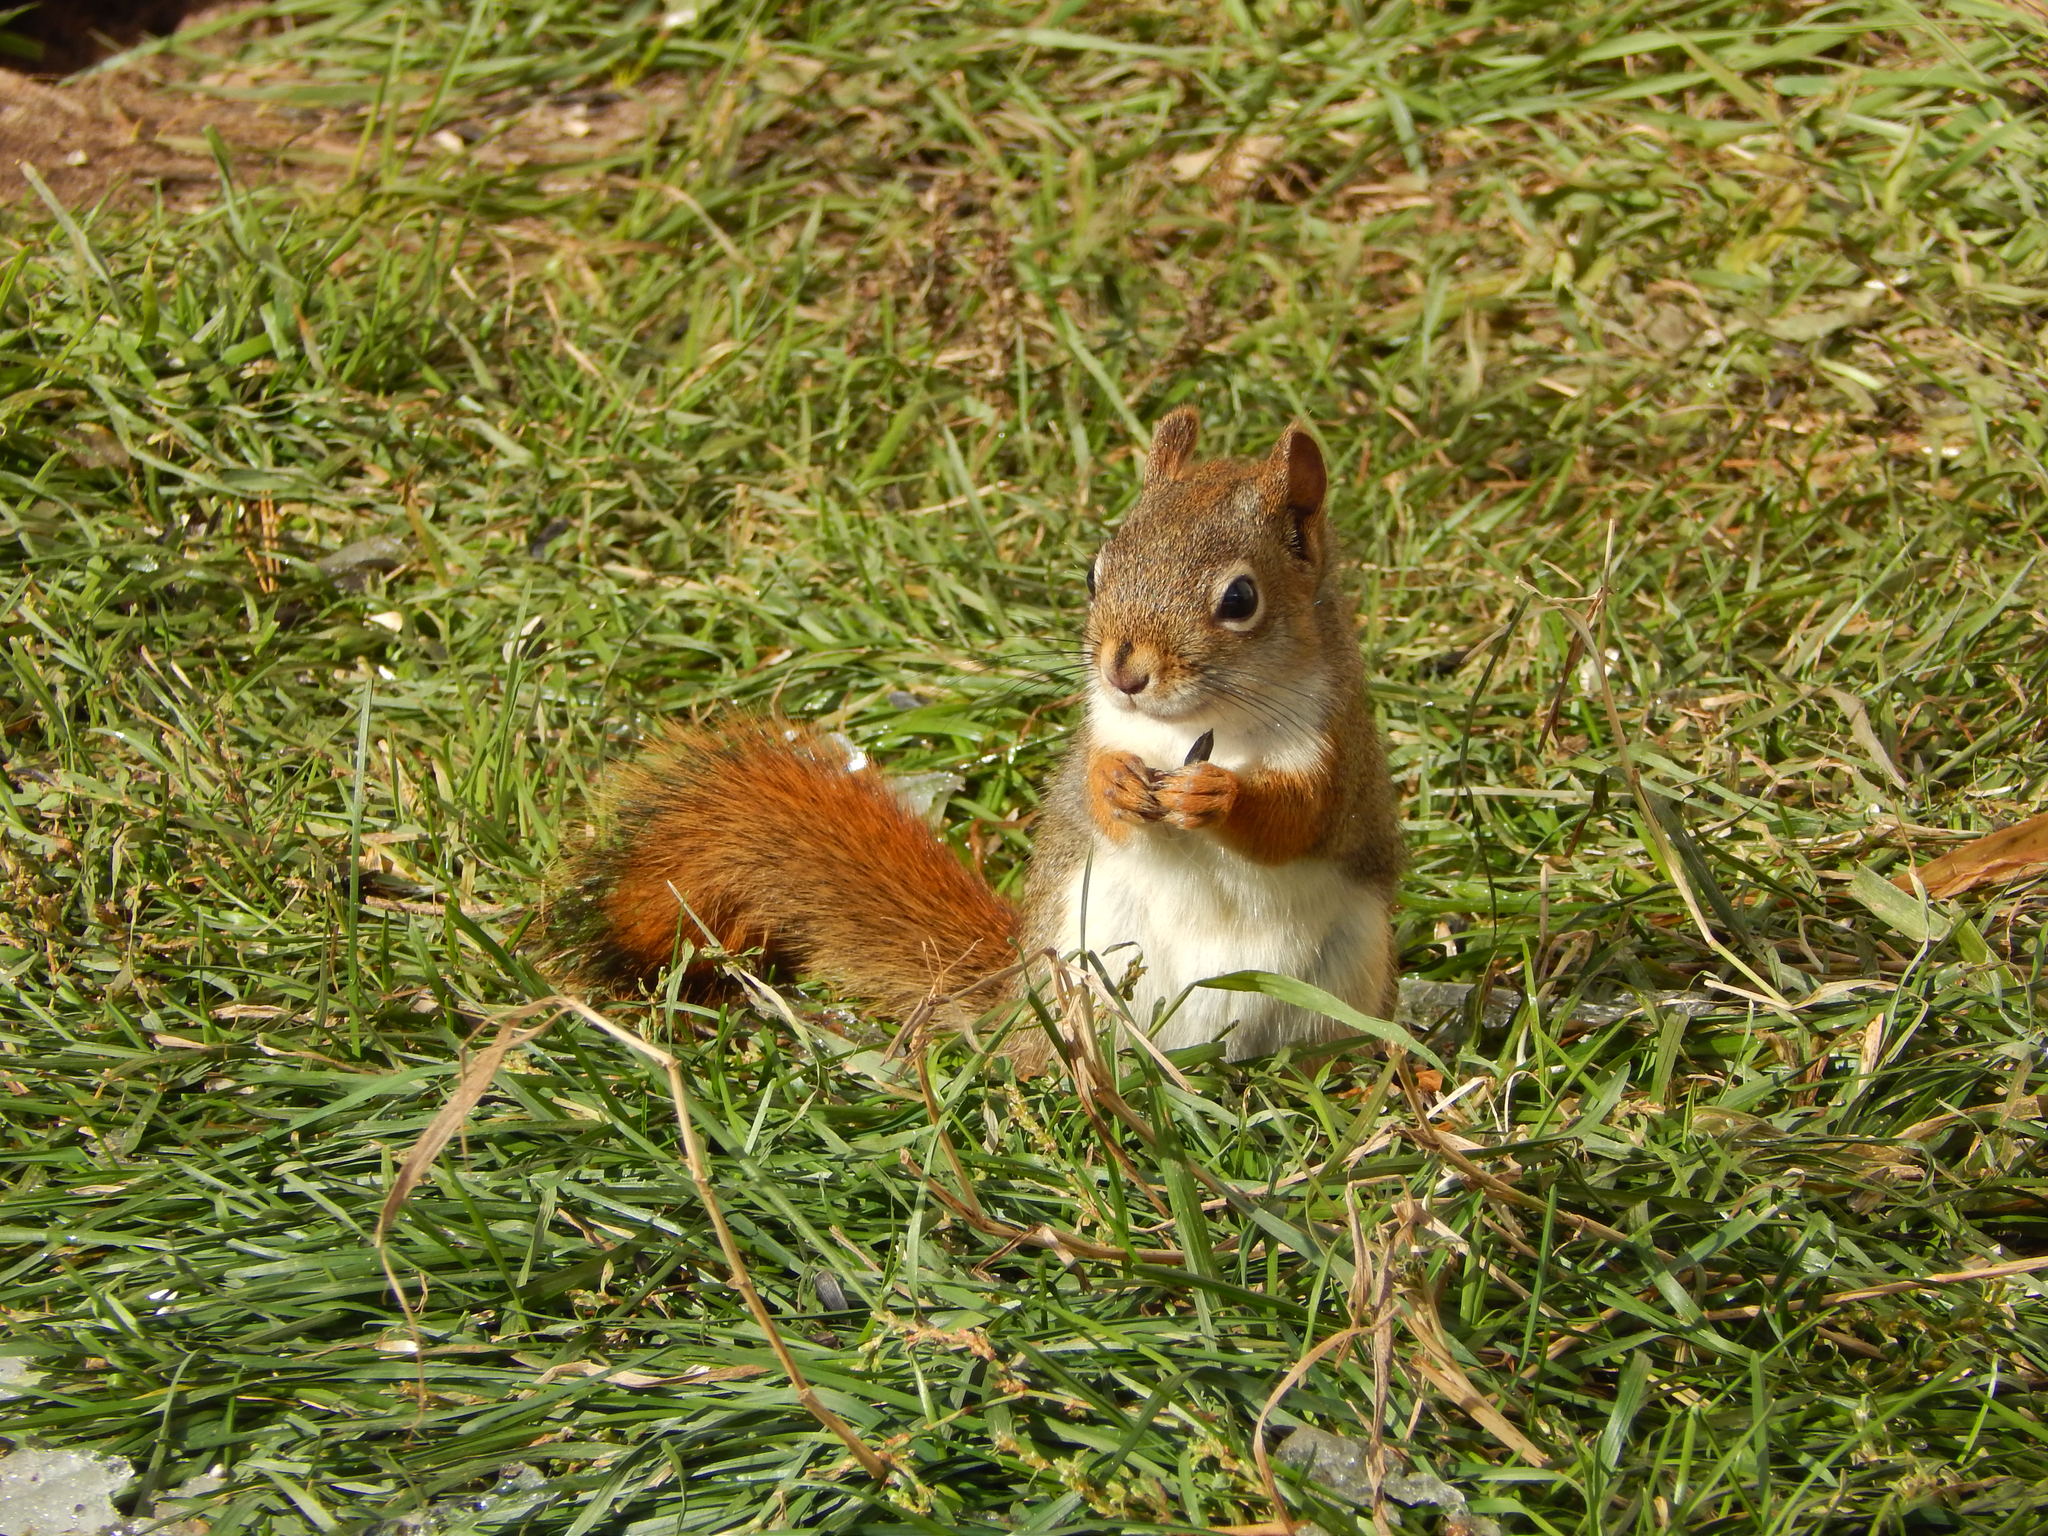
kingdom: Animalia
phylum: Chordata
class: Mammalia
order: Rodentia
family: Sciuridae
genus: Tamiasciurus
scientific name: Tamiasciurus hudsonicus
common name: Red squirrel
